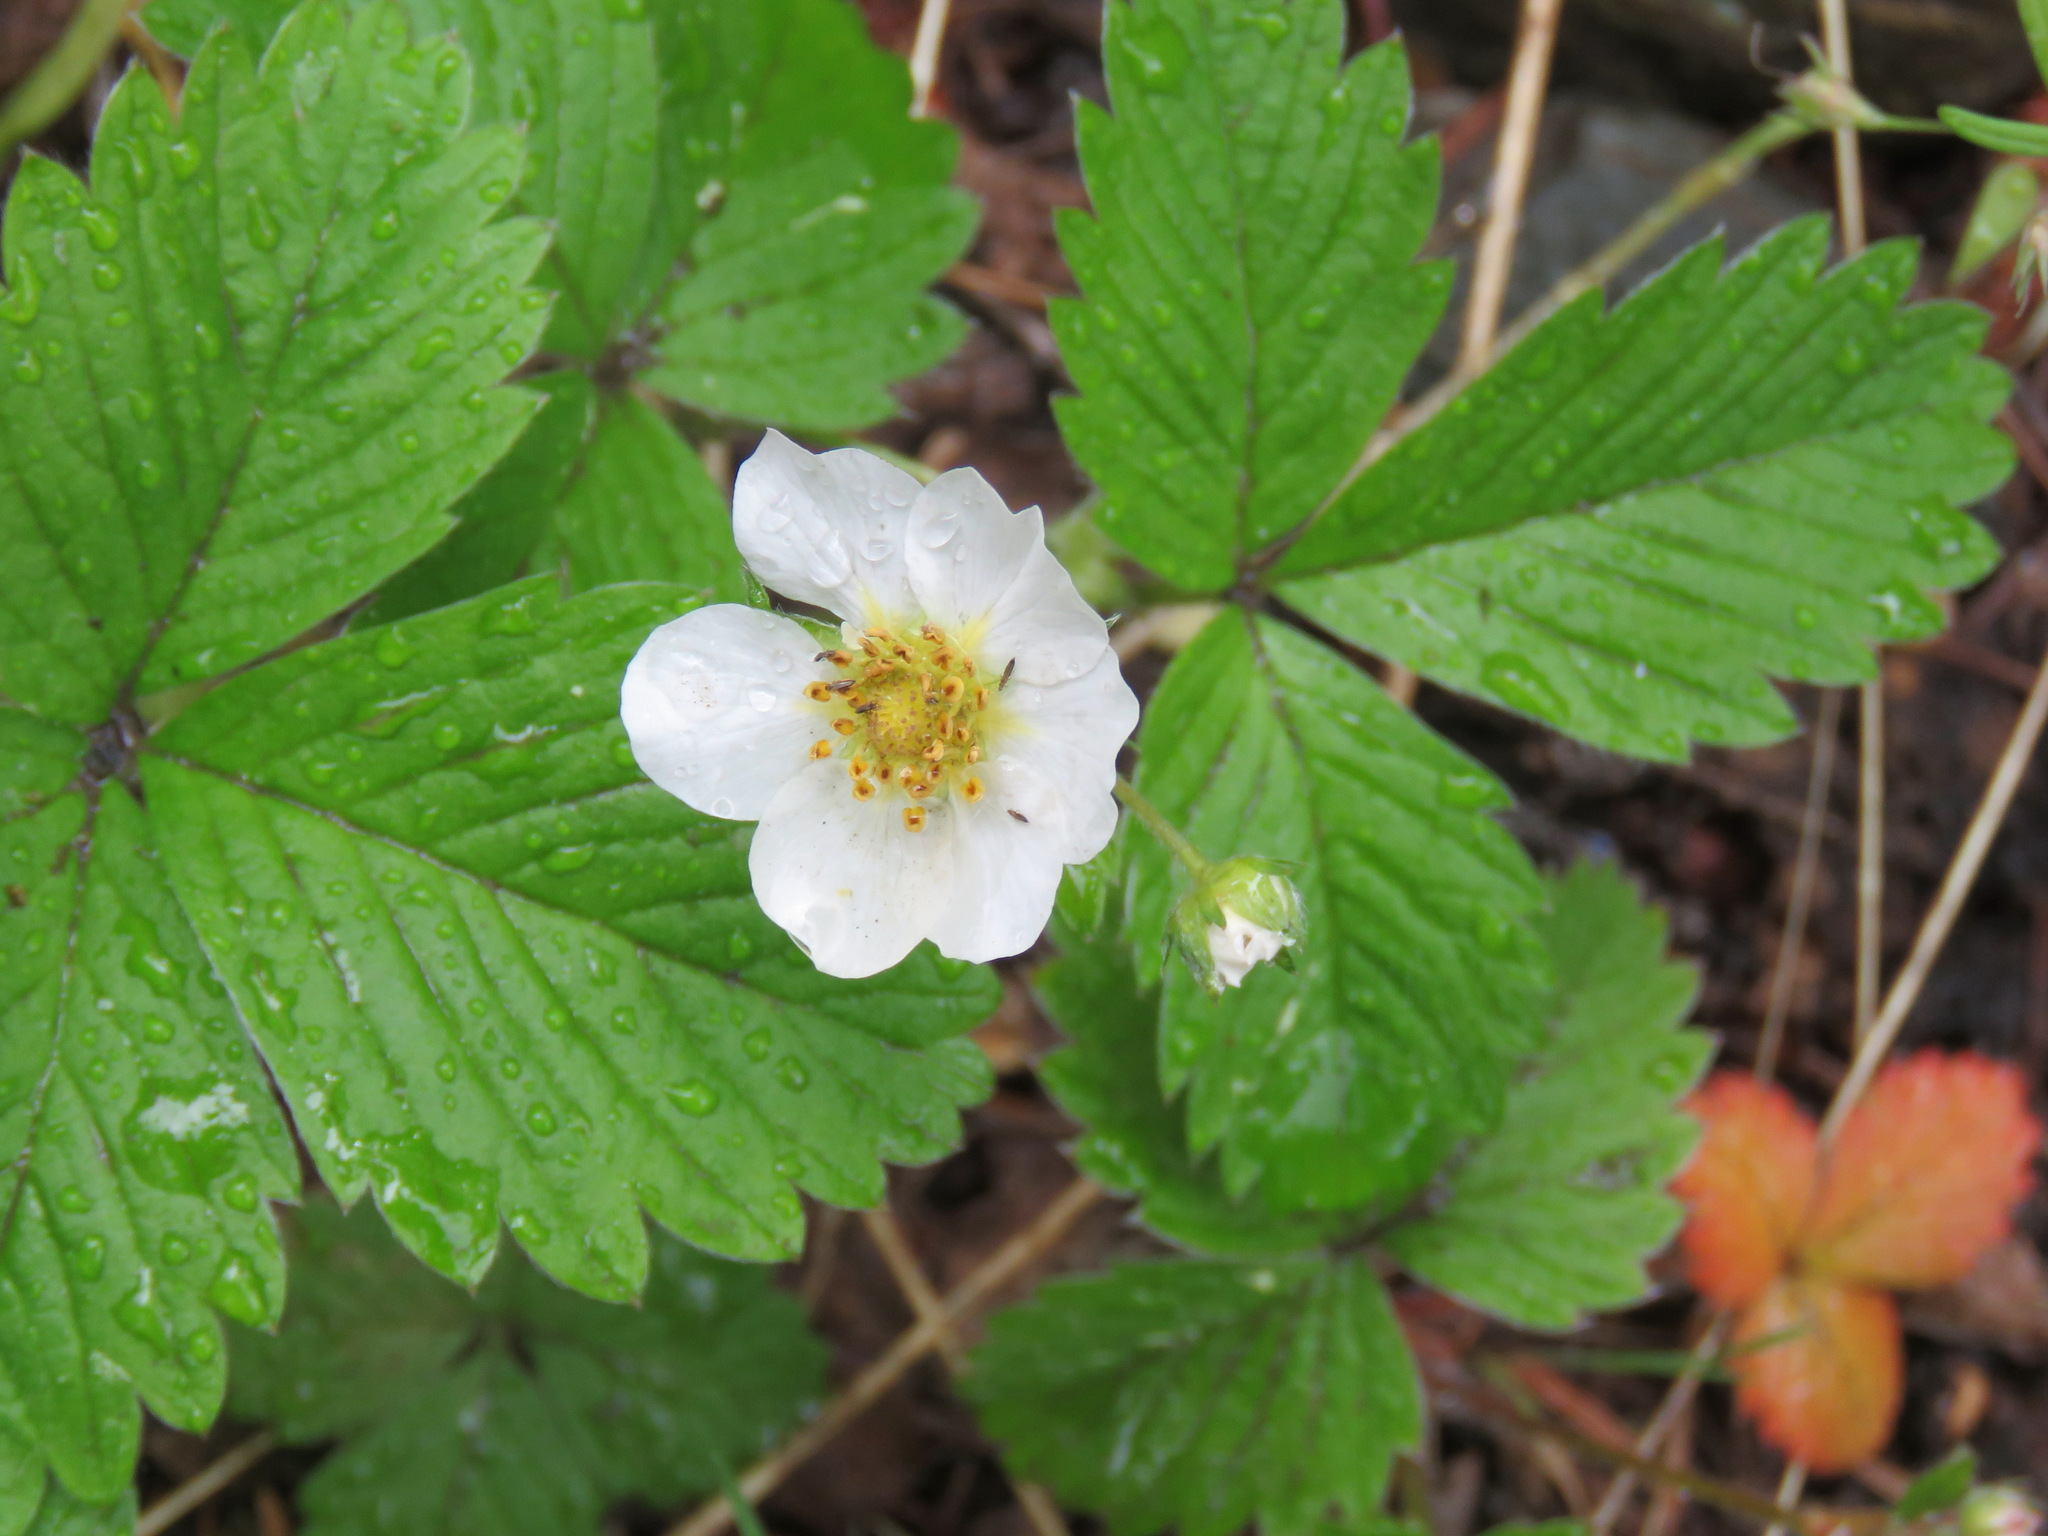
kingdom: Plantae
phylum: Tracheophyta
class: Magnoliopsida
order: Rosales
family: Rosaceae
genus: Fragaria
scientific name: Fragaria vesca
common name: Wild strawberry
